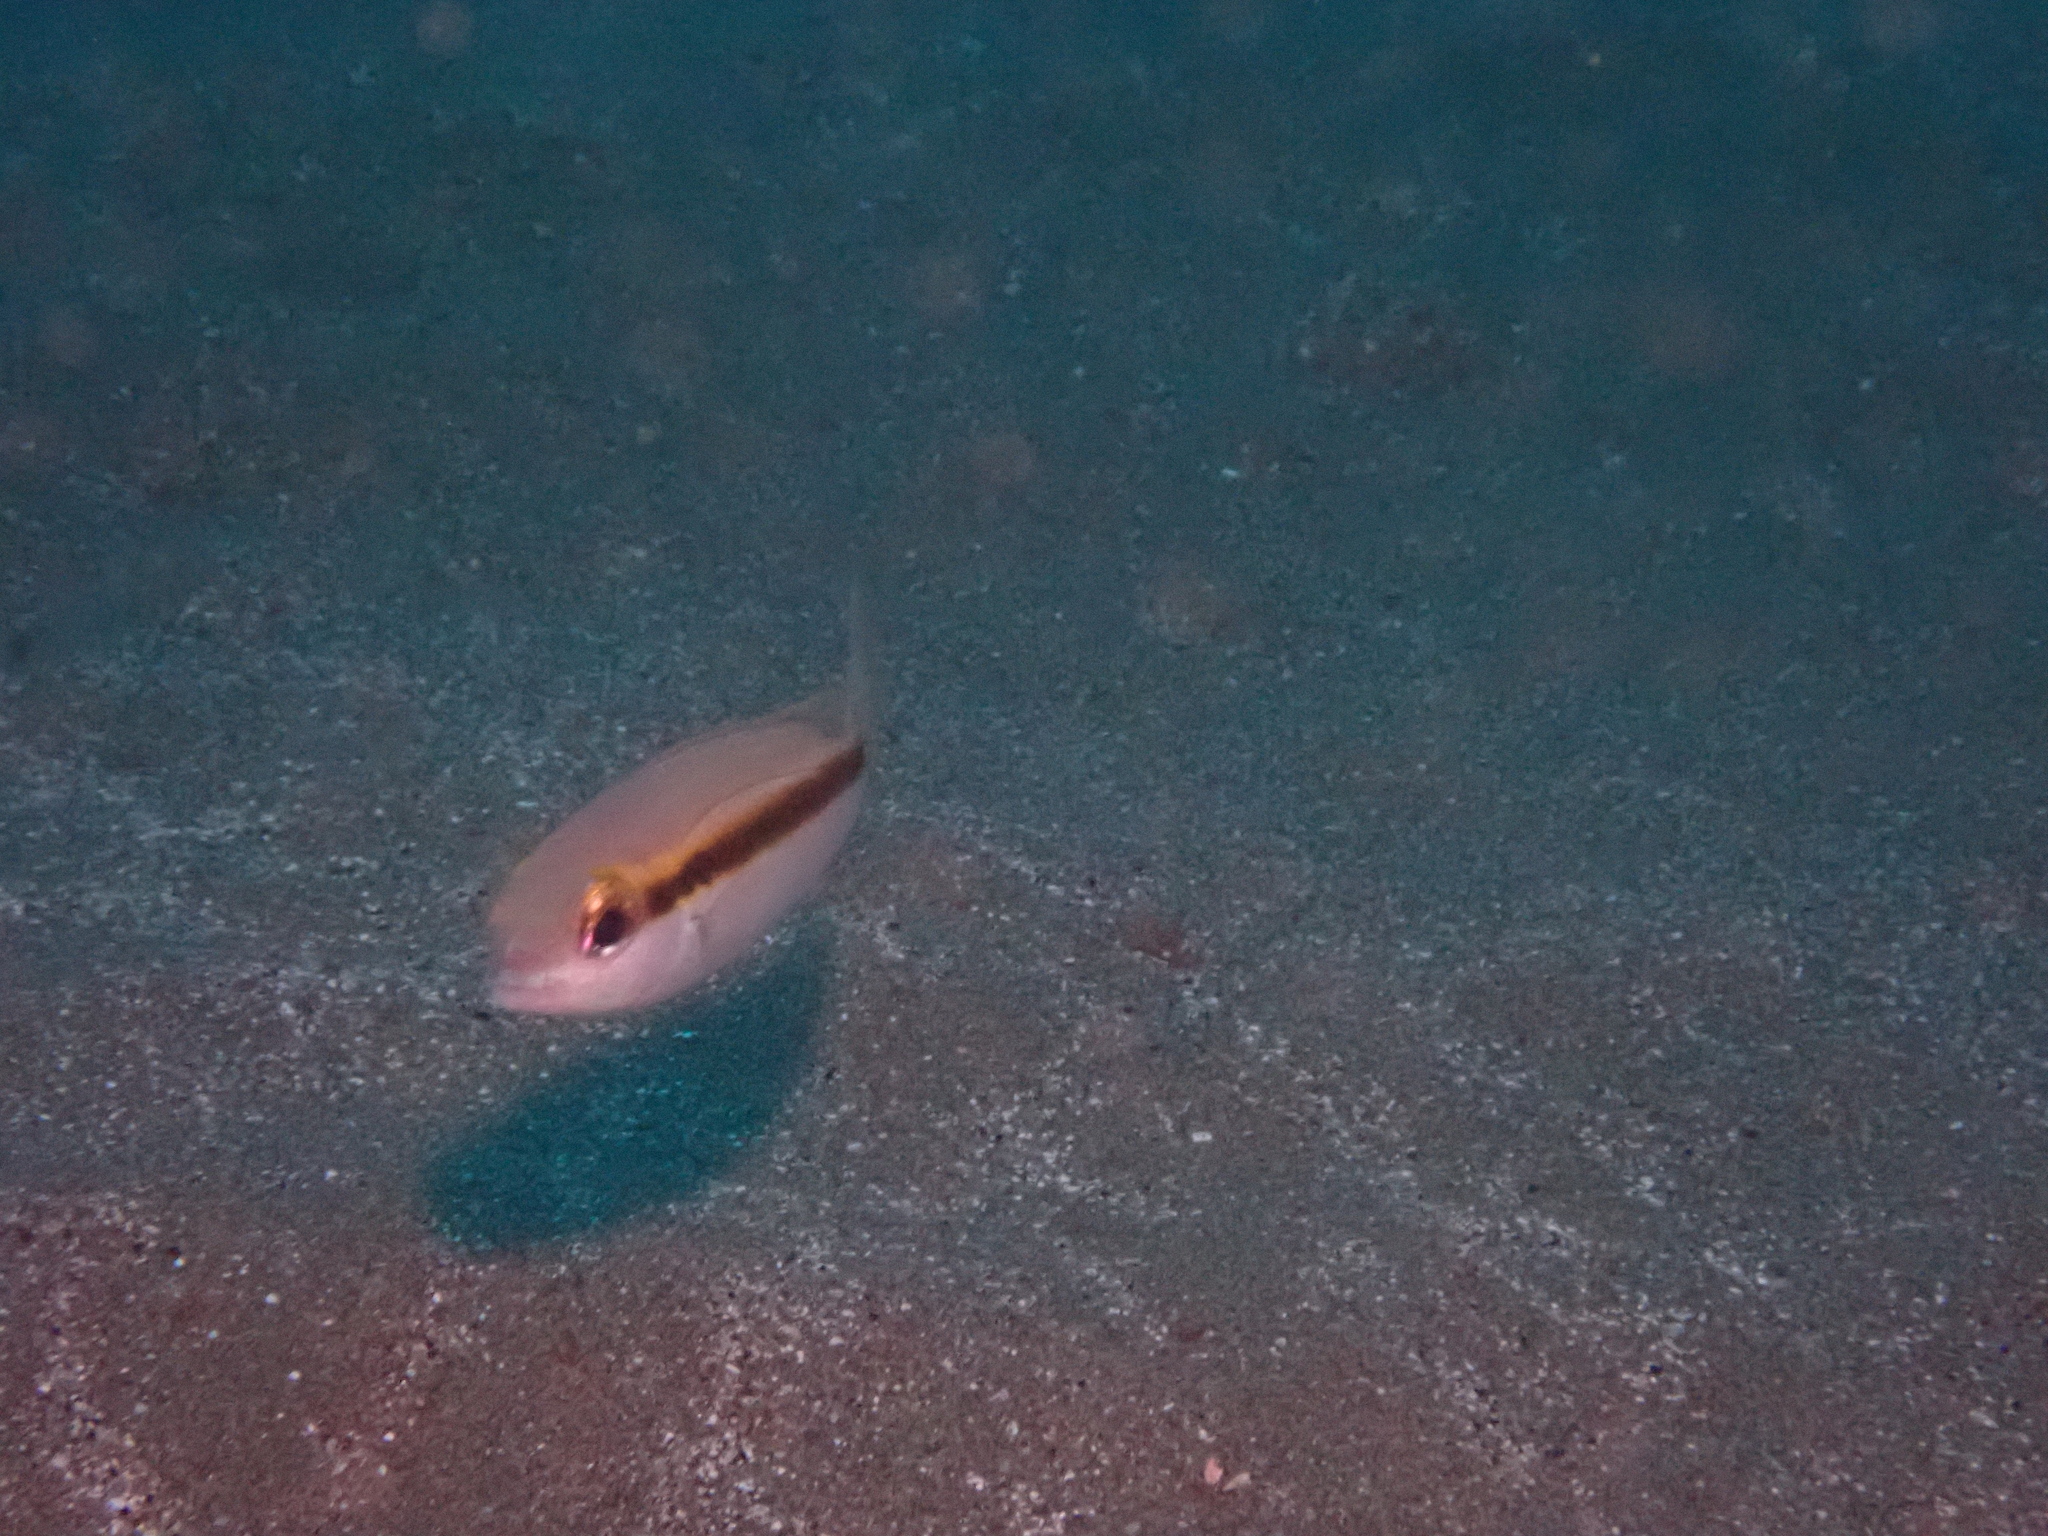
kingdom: Animalia
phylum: Chordata
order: Perciformes
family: Nemipteridae
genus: Scolopsis
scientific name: Scolopsis affinis
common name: Peters' monocle bream
